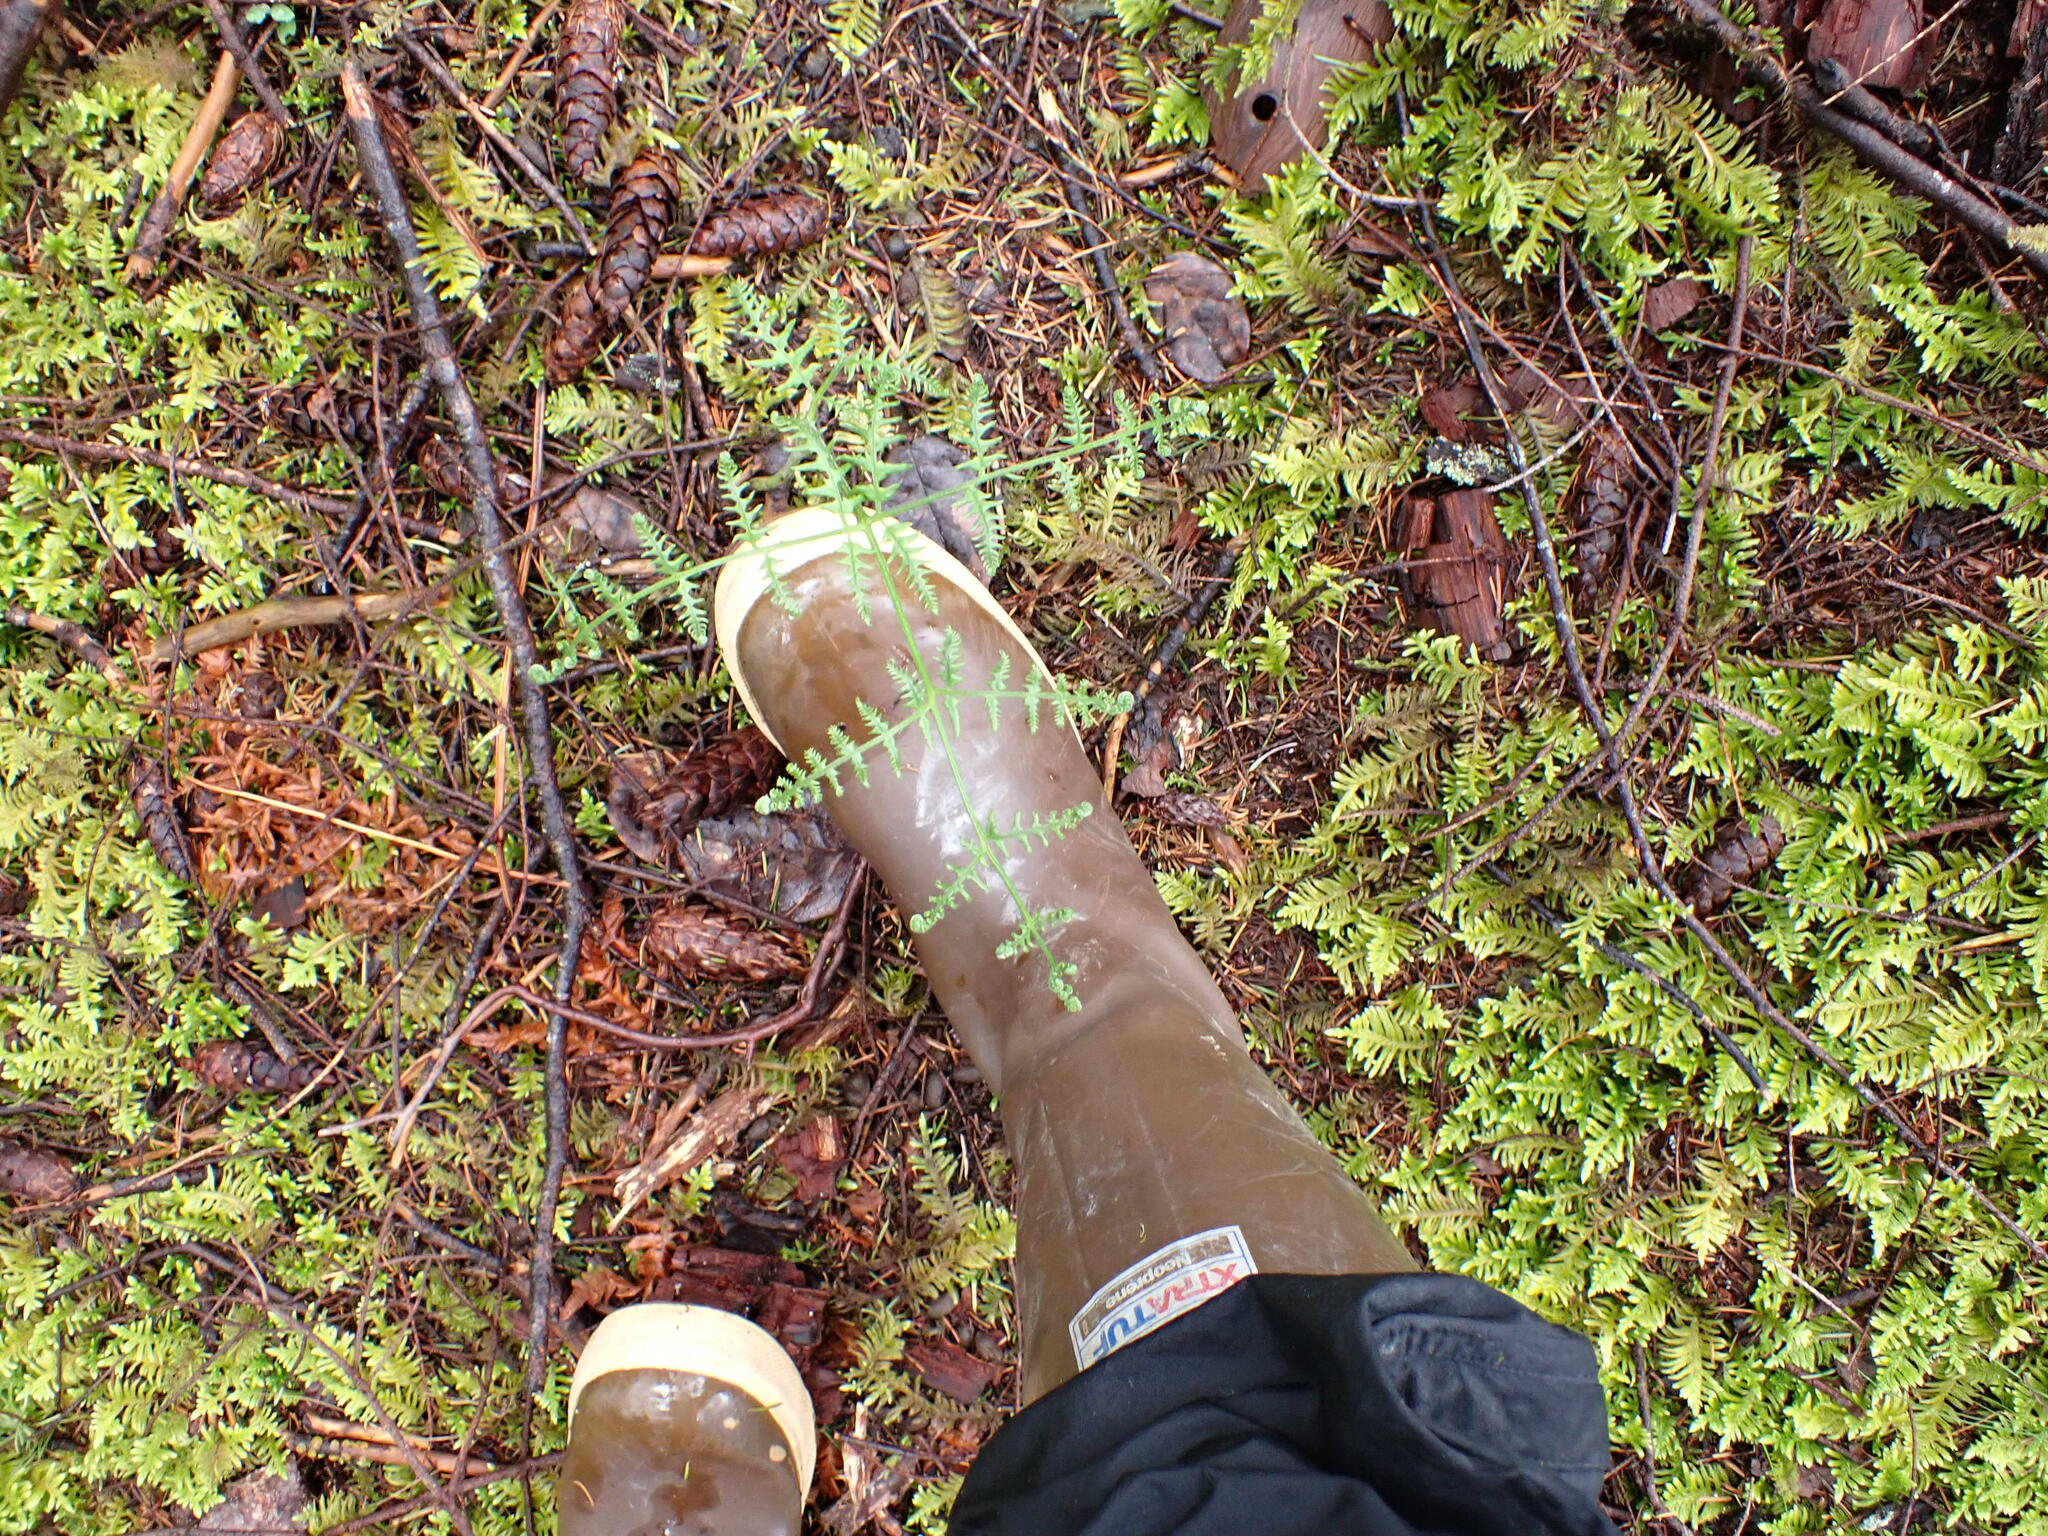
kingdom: Plantae
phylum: Tracheophyta
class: Polypodiopsida
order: Polypodiales
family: Dennstaedtiaceae
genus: Pteridium
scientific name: Pteridium aquilinum
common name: Bracken
